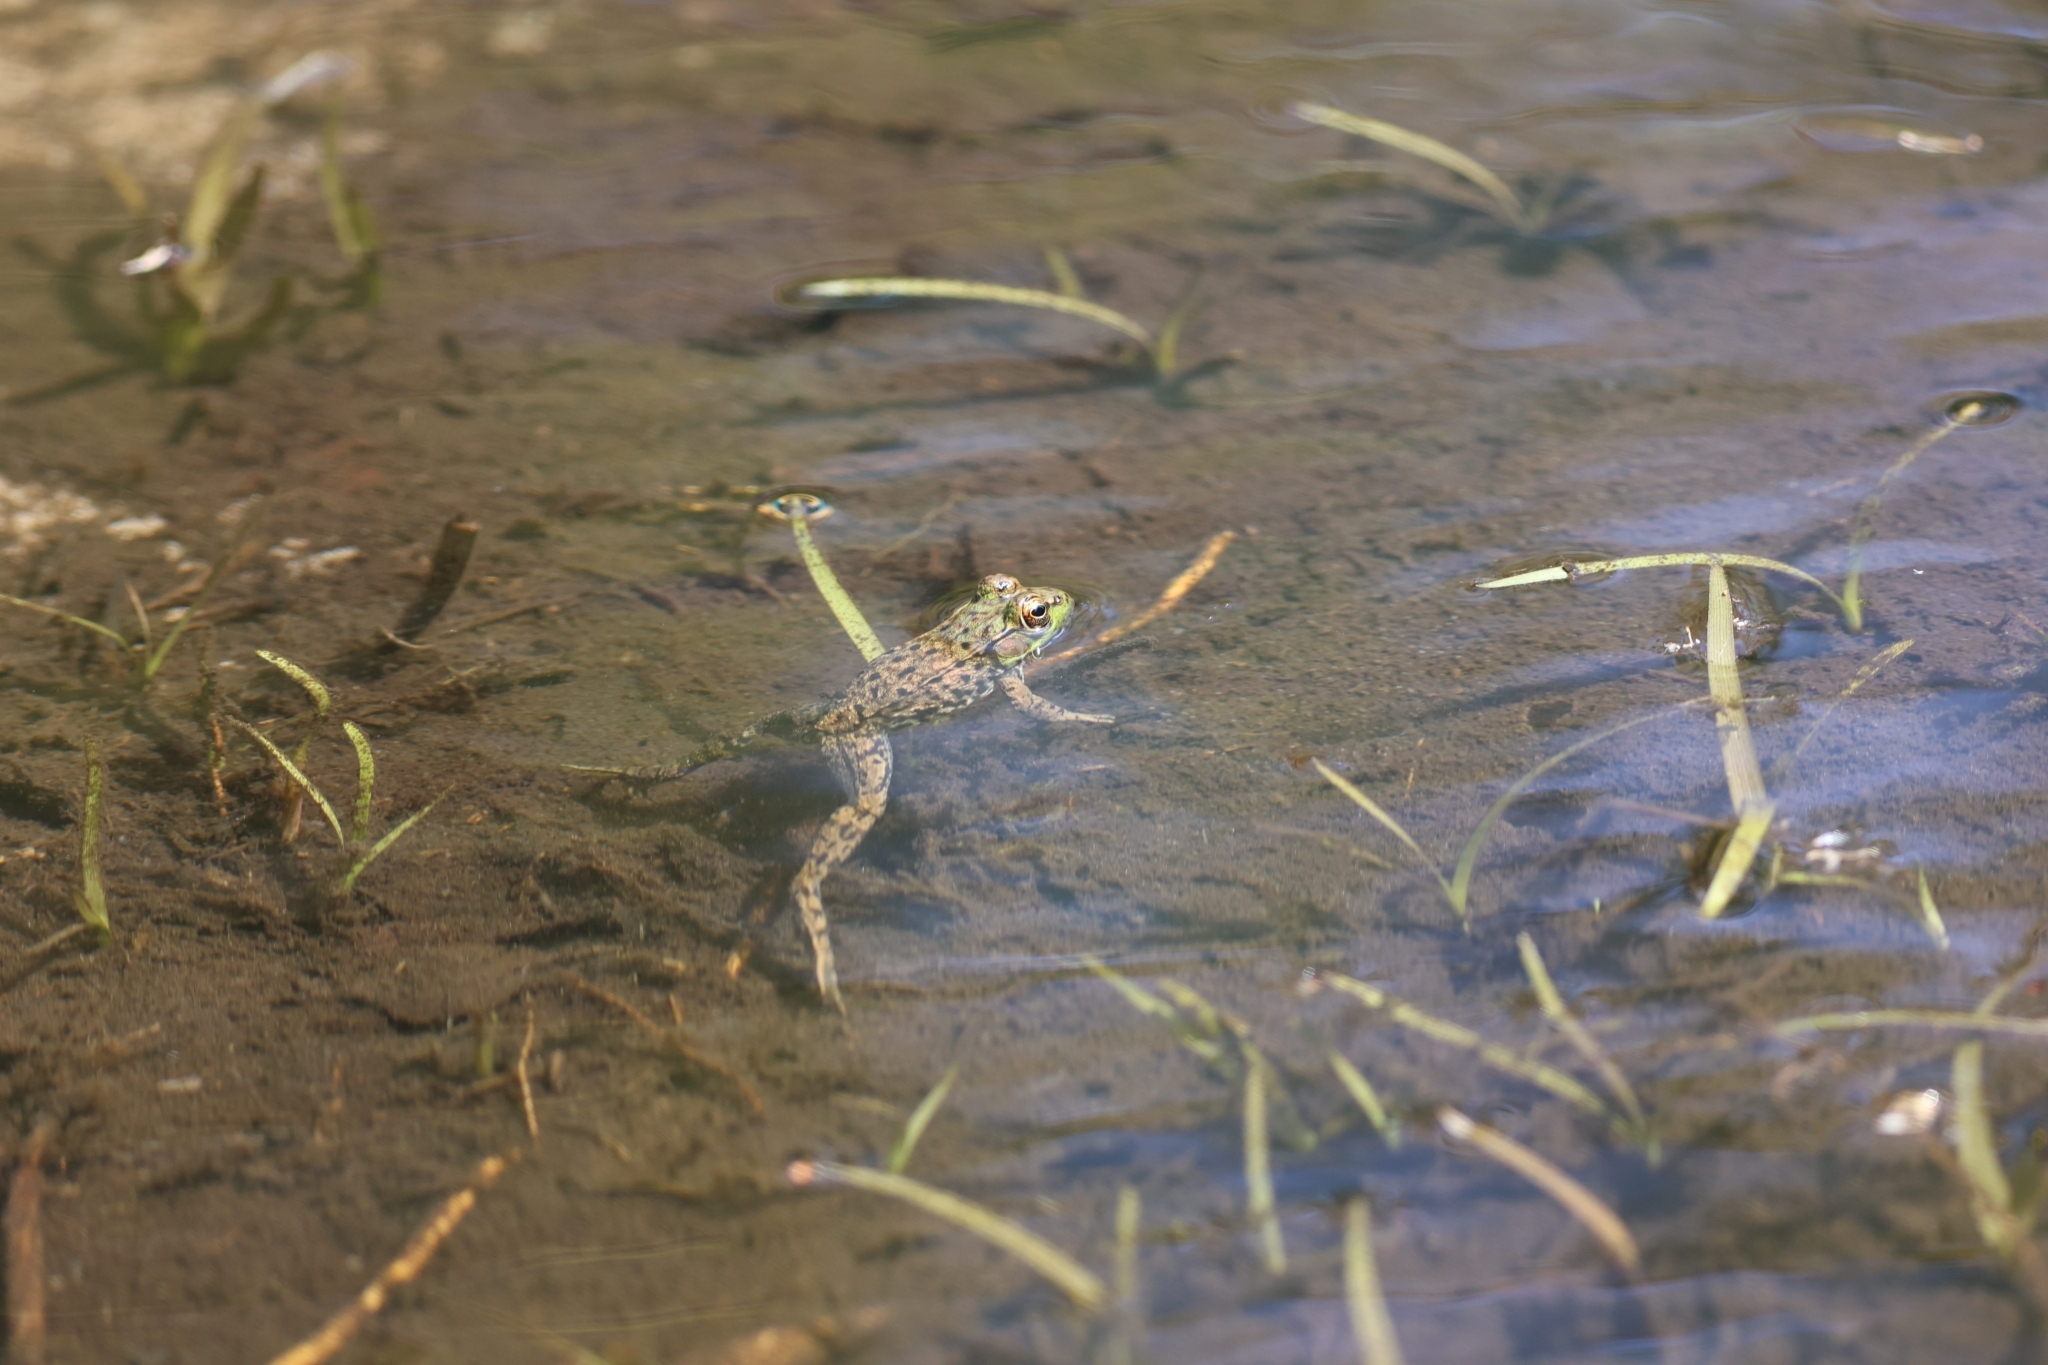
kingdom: Animalia
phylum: Chordata
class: Amphibia
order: Anura
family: Ranidae
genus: Lithobates
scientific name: Lithobates clamitans
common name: Green frog
